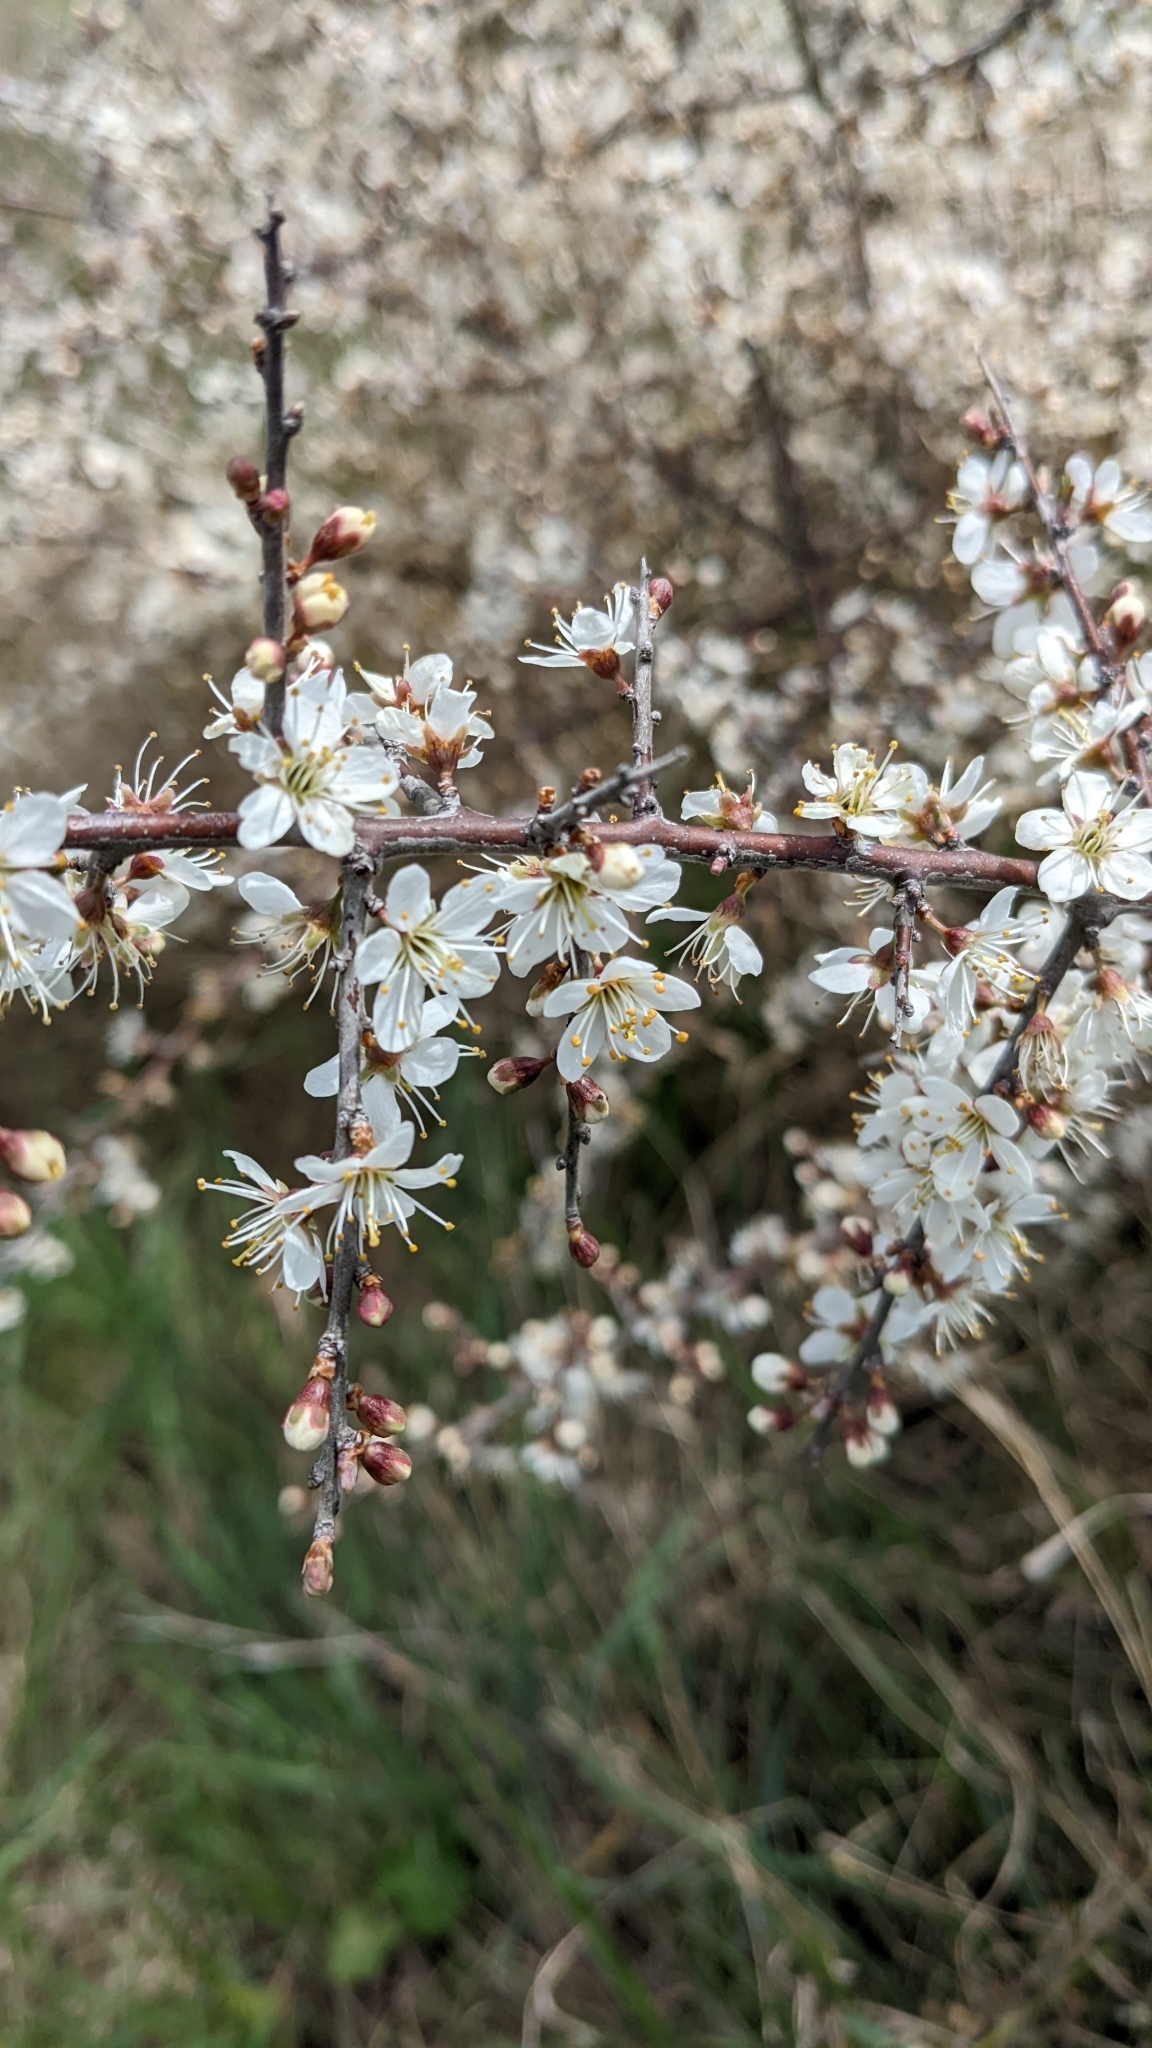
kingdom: Plantae
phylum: Tracheophyta
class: Magnoliopsida
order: Rosales
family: Rosaceae
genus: Prunus
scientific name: Prunus spinosa
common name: Blackthorn
